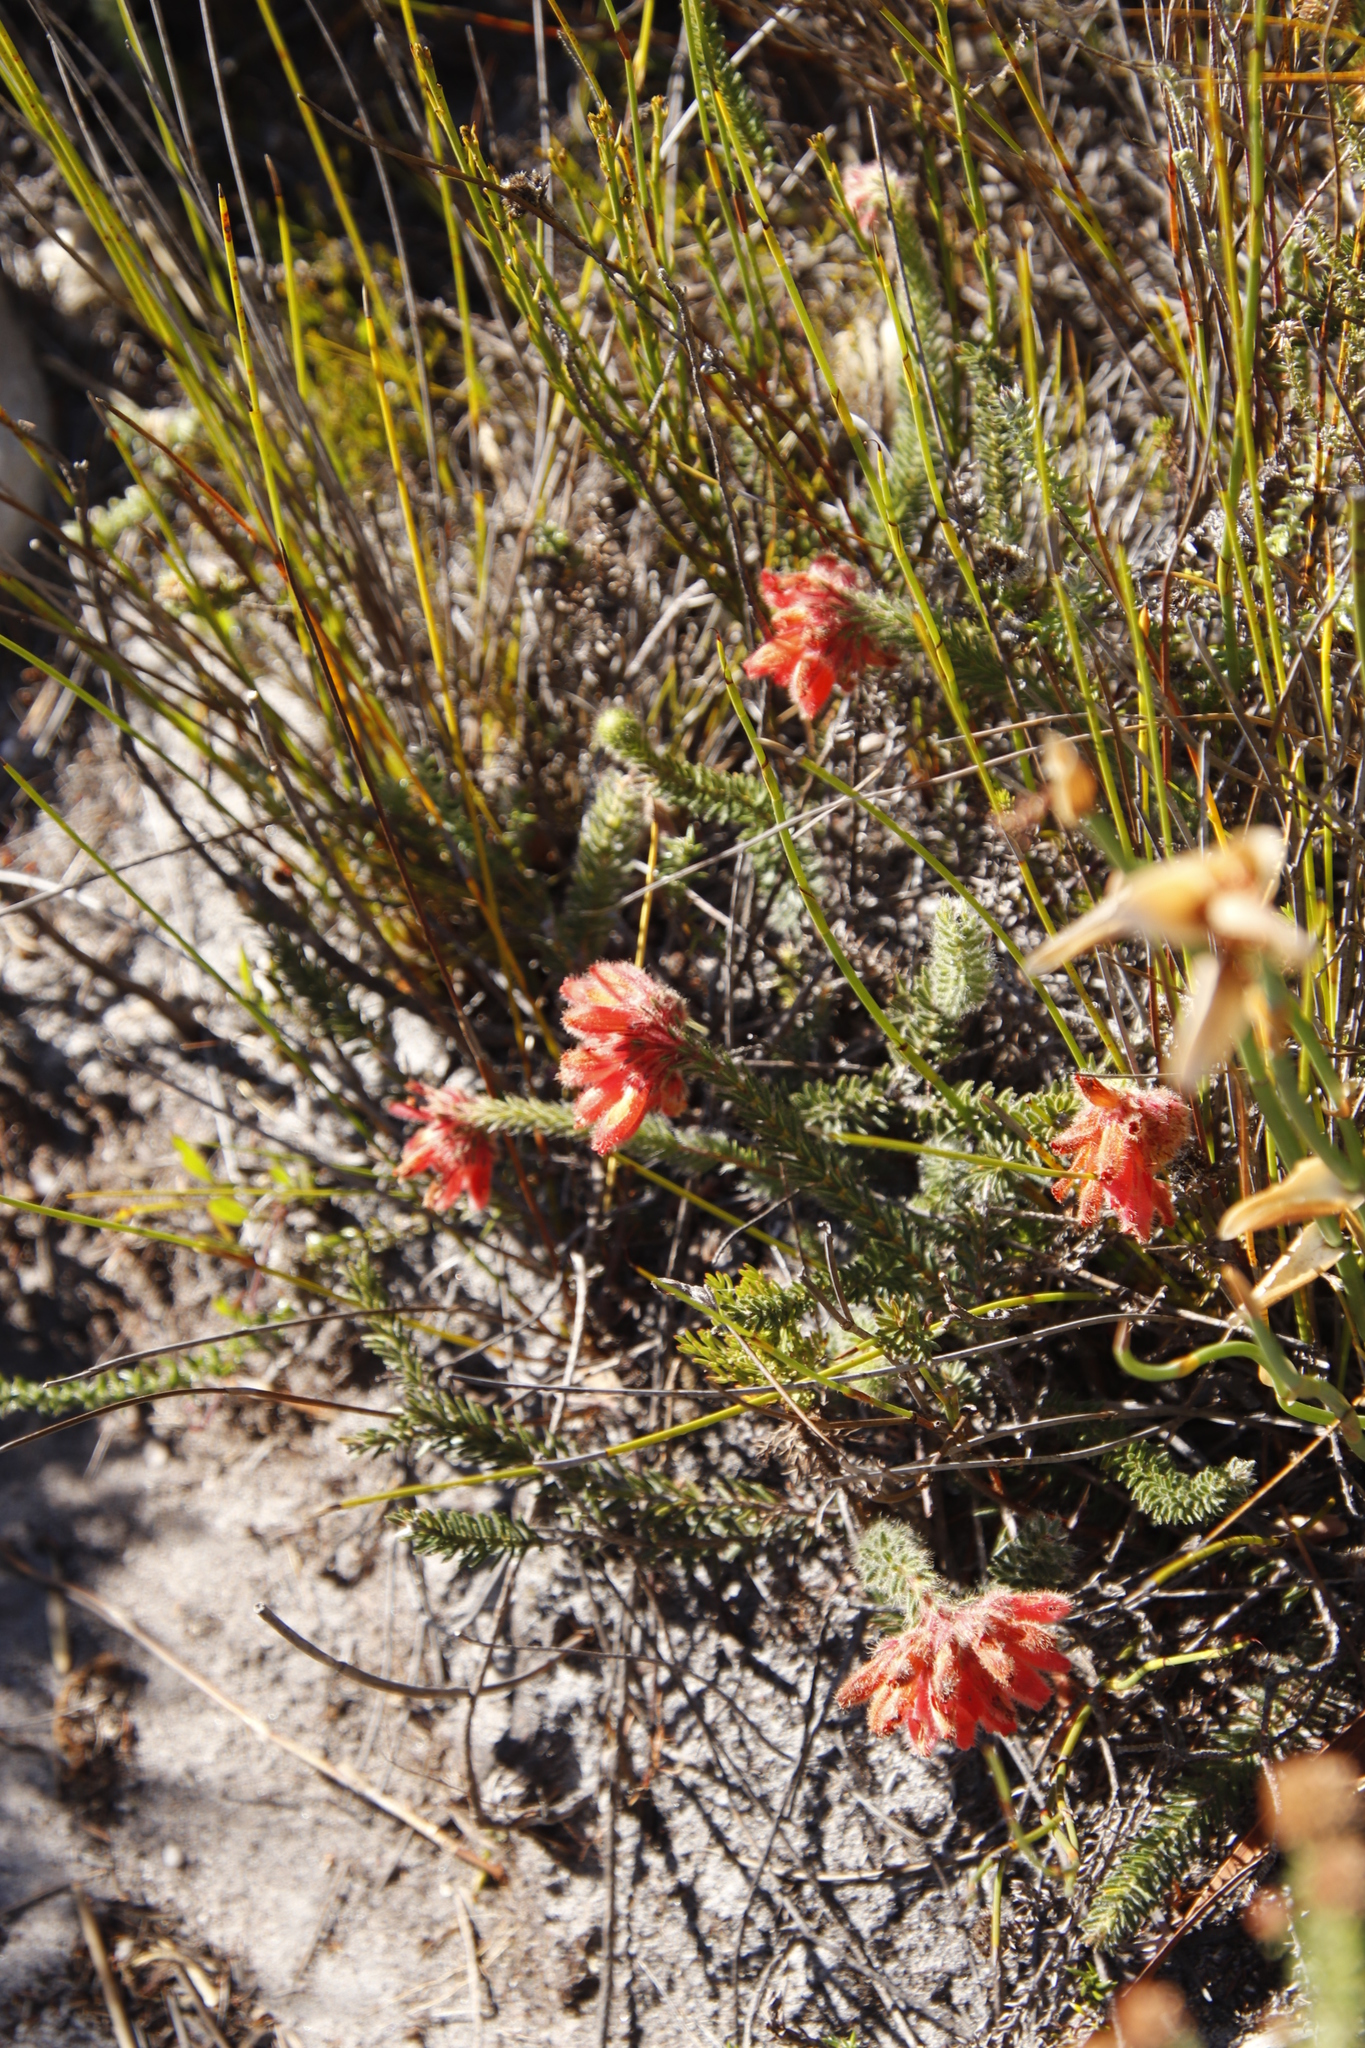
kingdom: Plantae
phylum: Tracheophyta
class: Magnoliopsida
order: Ericales
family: Ericaceae
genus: Erica
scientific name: Erica cerinthoides
